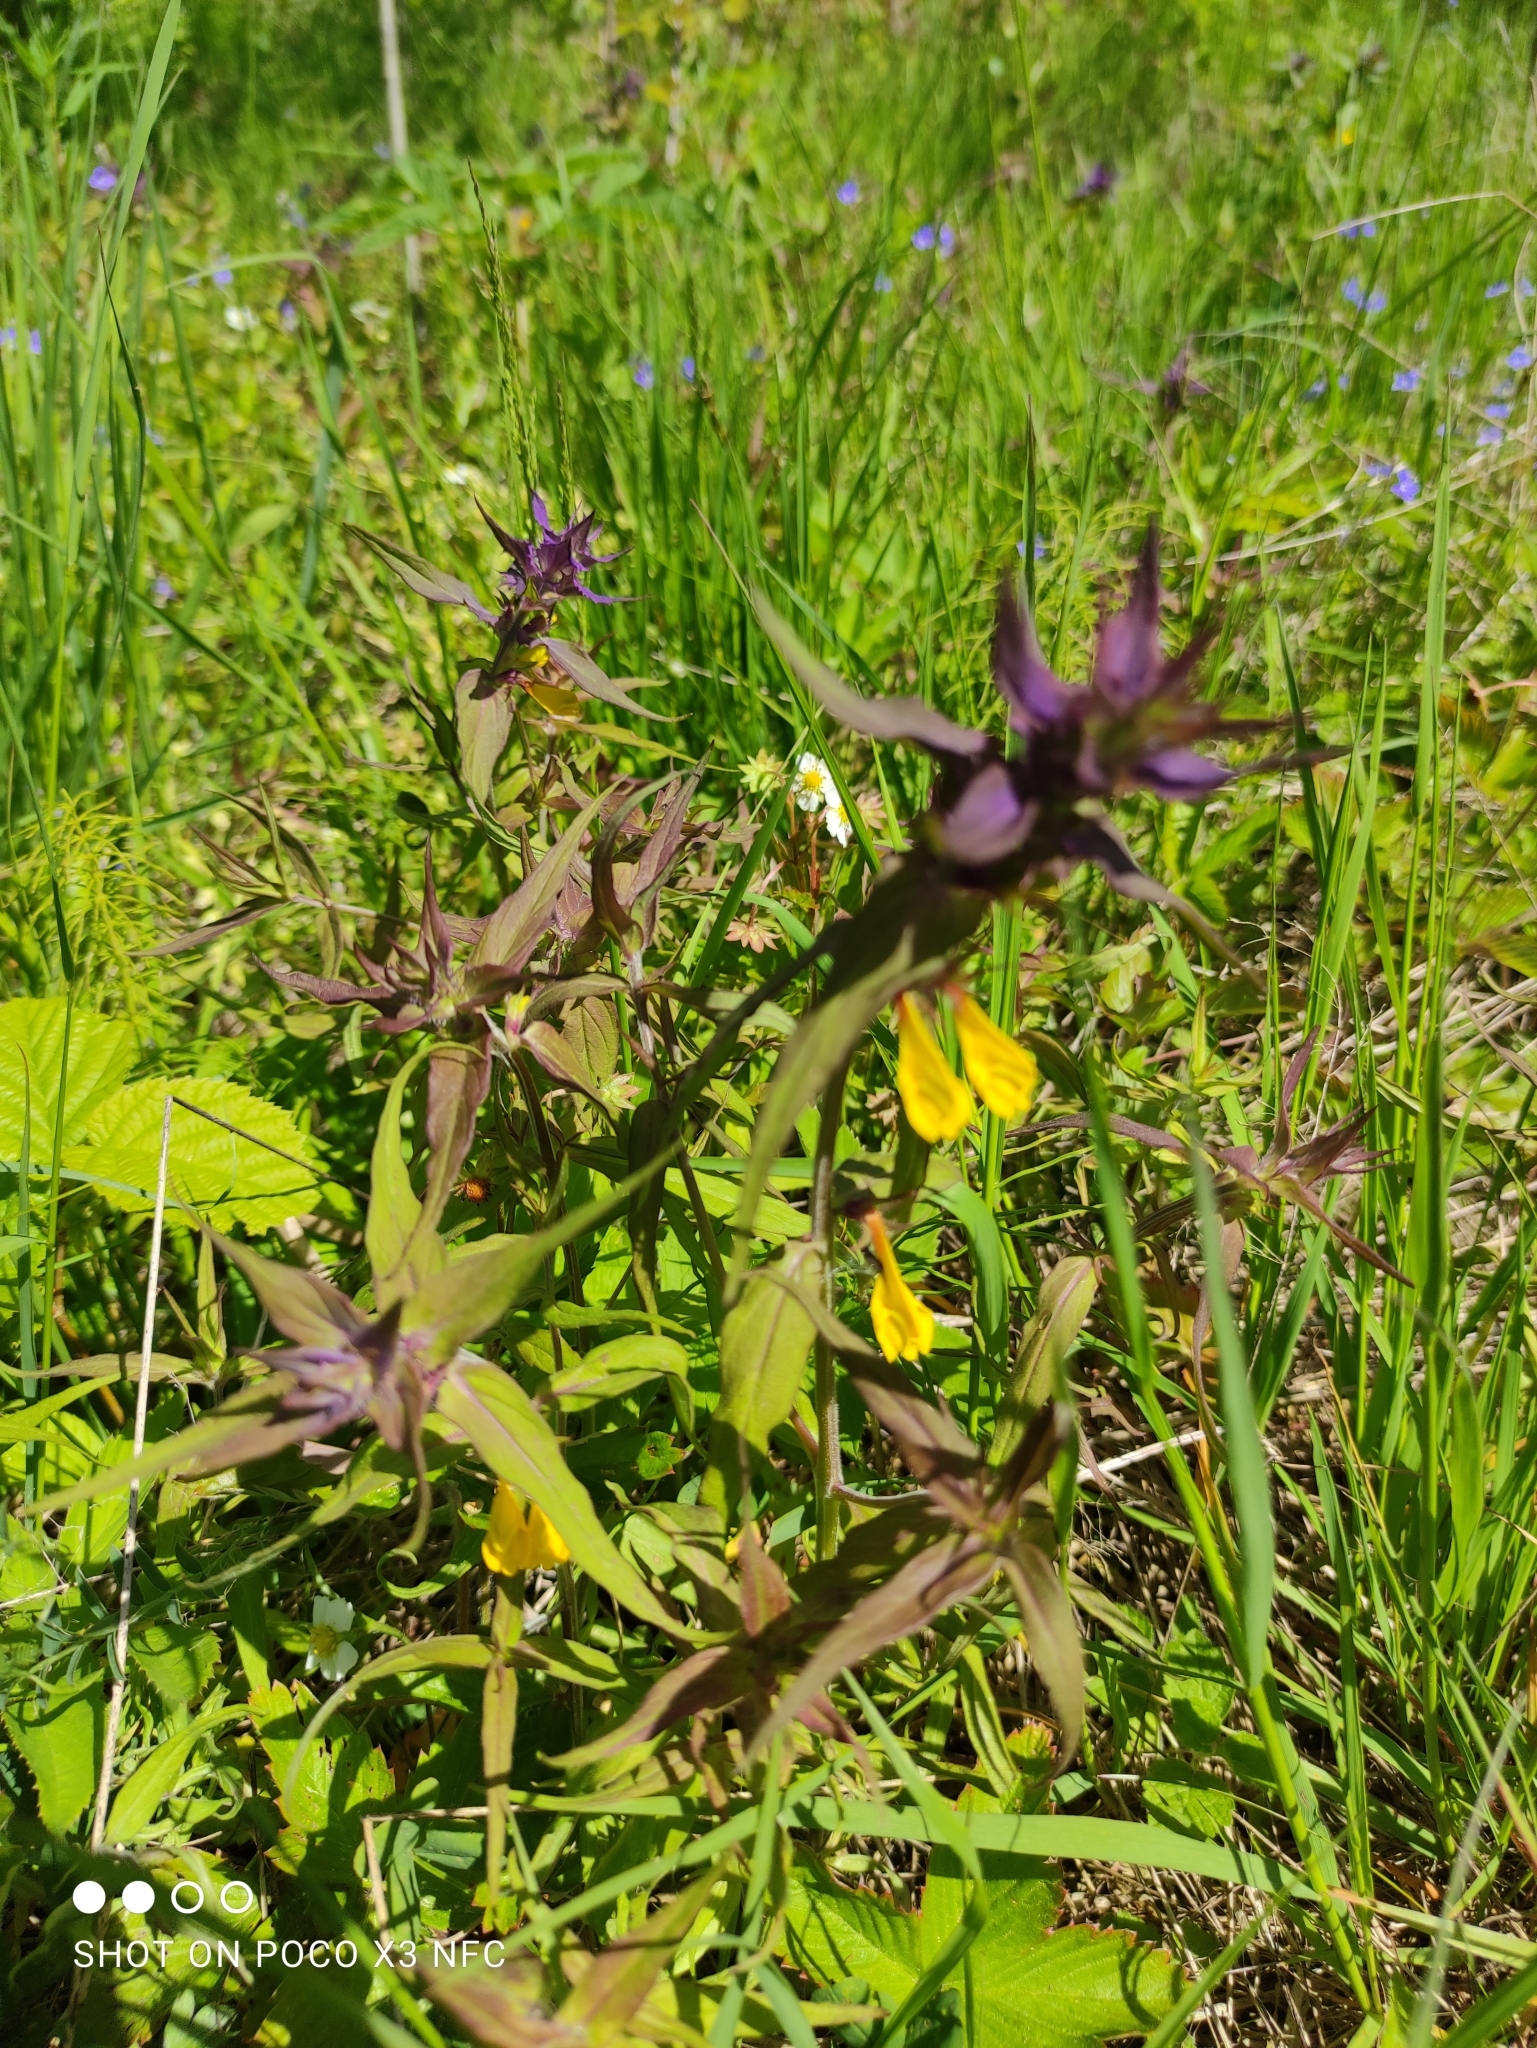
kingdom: Plantae
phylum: Tracheophyta
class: Magnoliopsida
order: Lamiales
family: Orobanchaceae
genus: Melampyrum
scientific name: Melampyrum nemorosum
